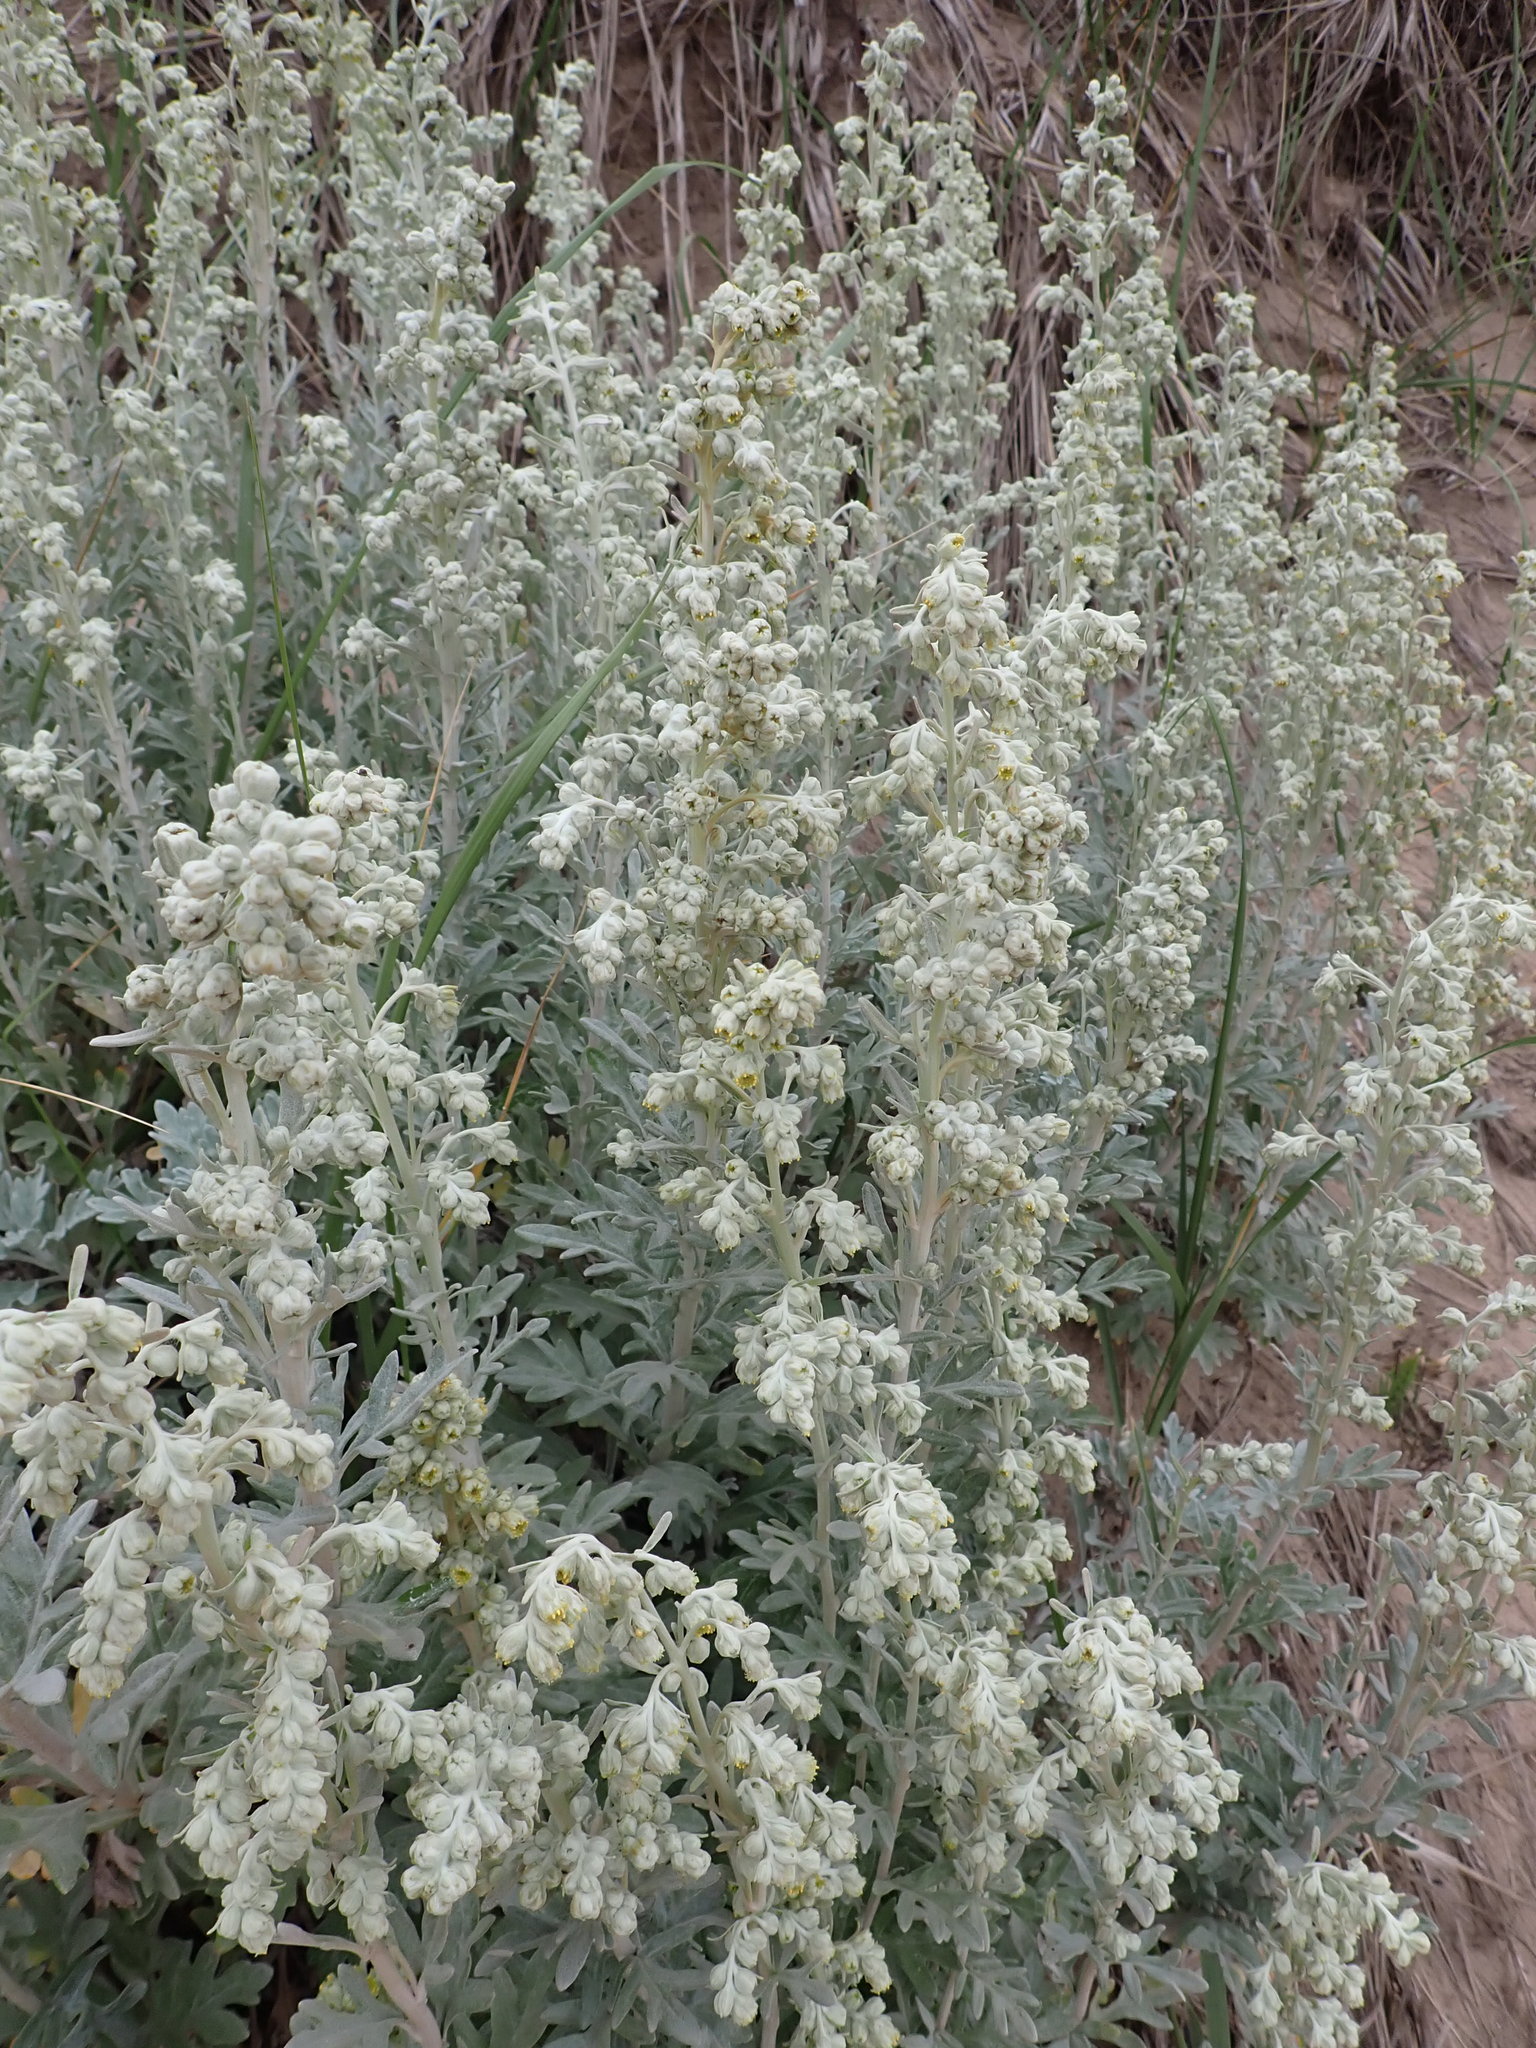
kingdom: Plantae
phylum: Tracheophyta
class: Magnoliopsida
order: Asterales
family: Asteraceae
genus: Artemisia
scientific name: Artemisia stelleriana
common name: Beach wormwood
